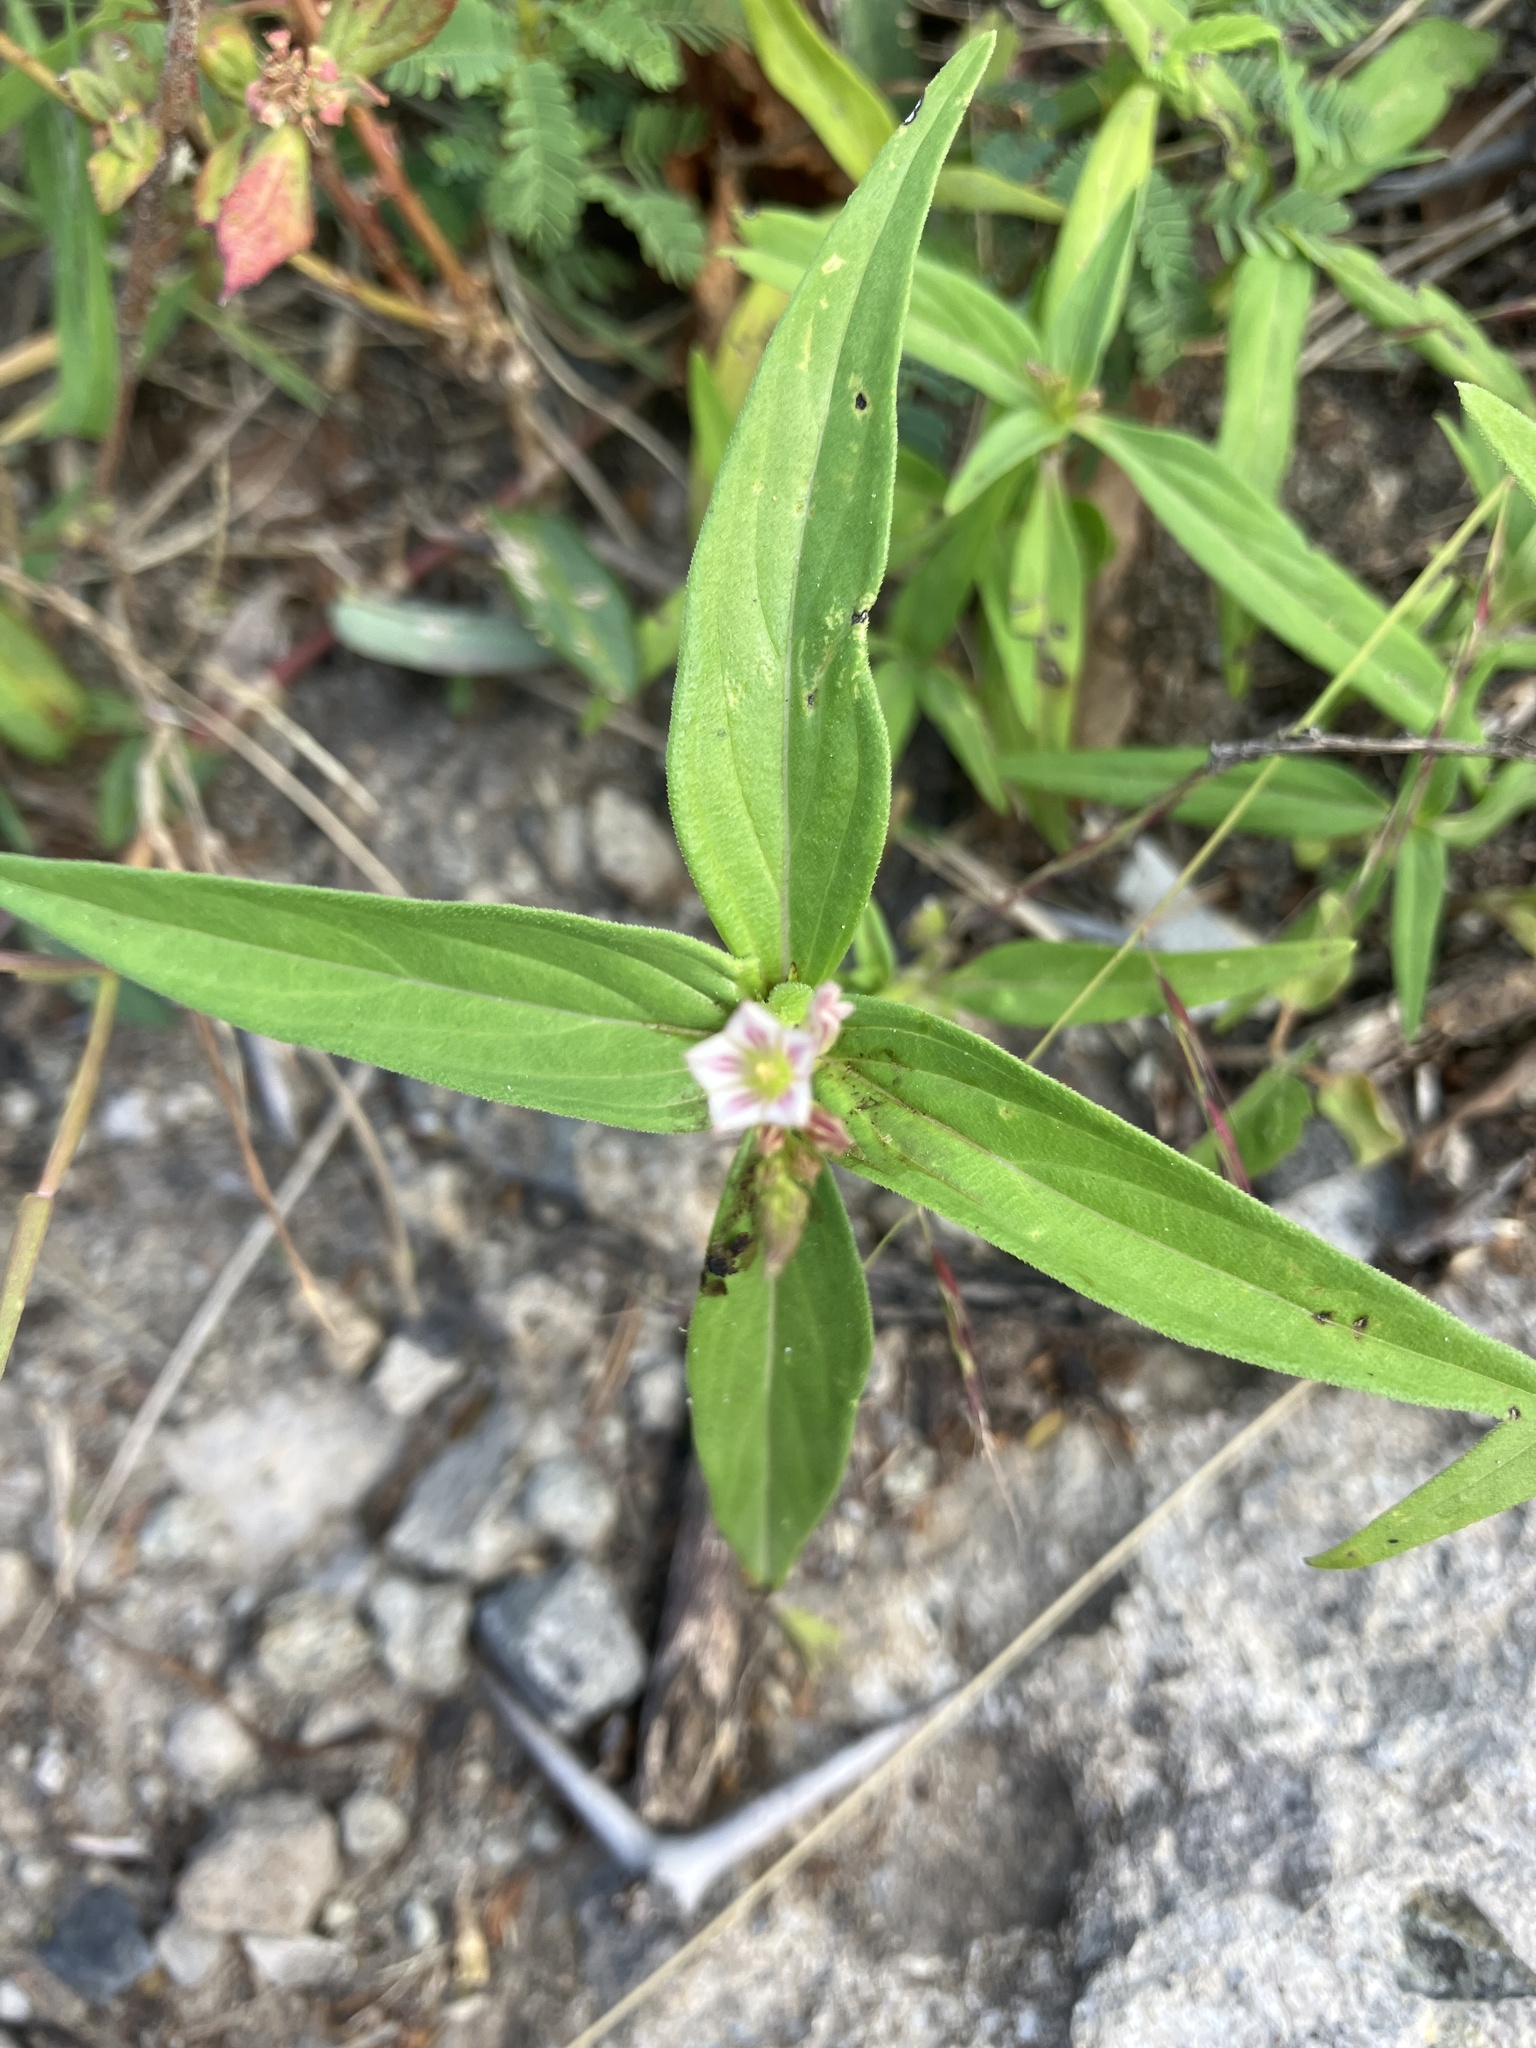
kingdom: Plantae
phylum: Tracheophyta
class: Magnoliopsida
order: Gentianales
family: Loganiaceae
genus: Spigelia
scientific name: Spigelia anthelmia
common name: West indian-pink
